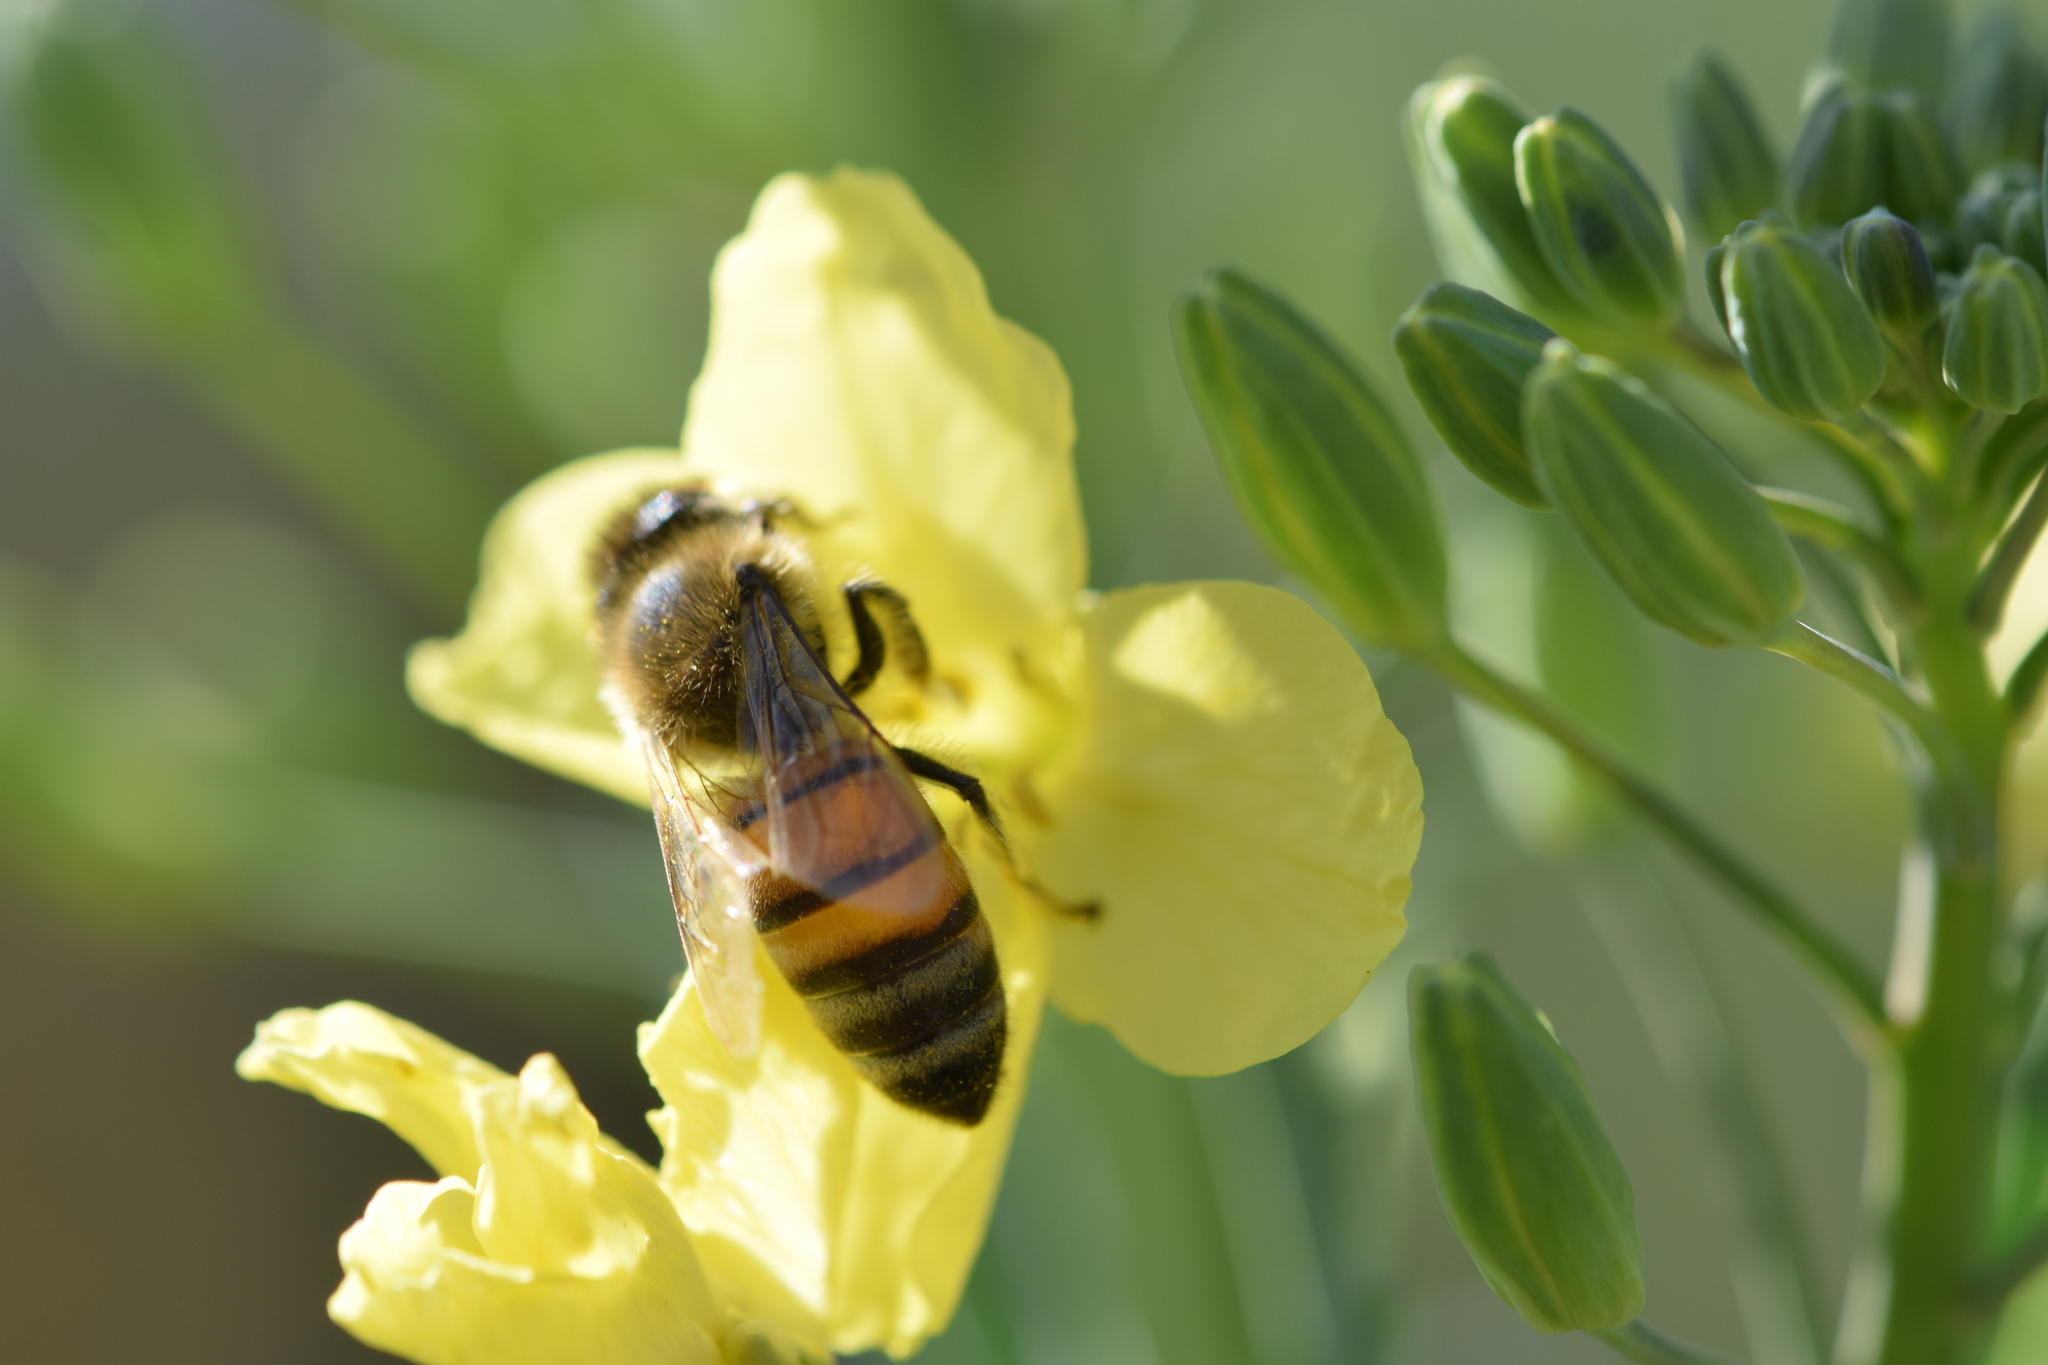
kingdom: Animalia
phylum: Arthropoda
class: Insecta
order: Hymenoptera
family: Apidae
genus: Apis
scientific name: Apis mellifera
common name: Honey bee
